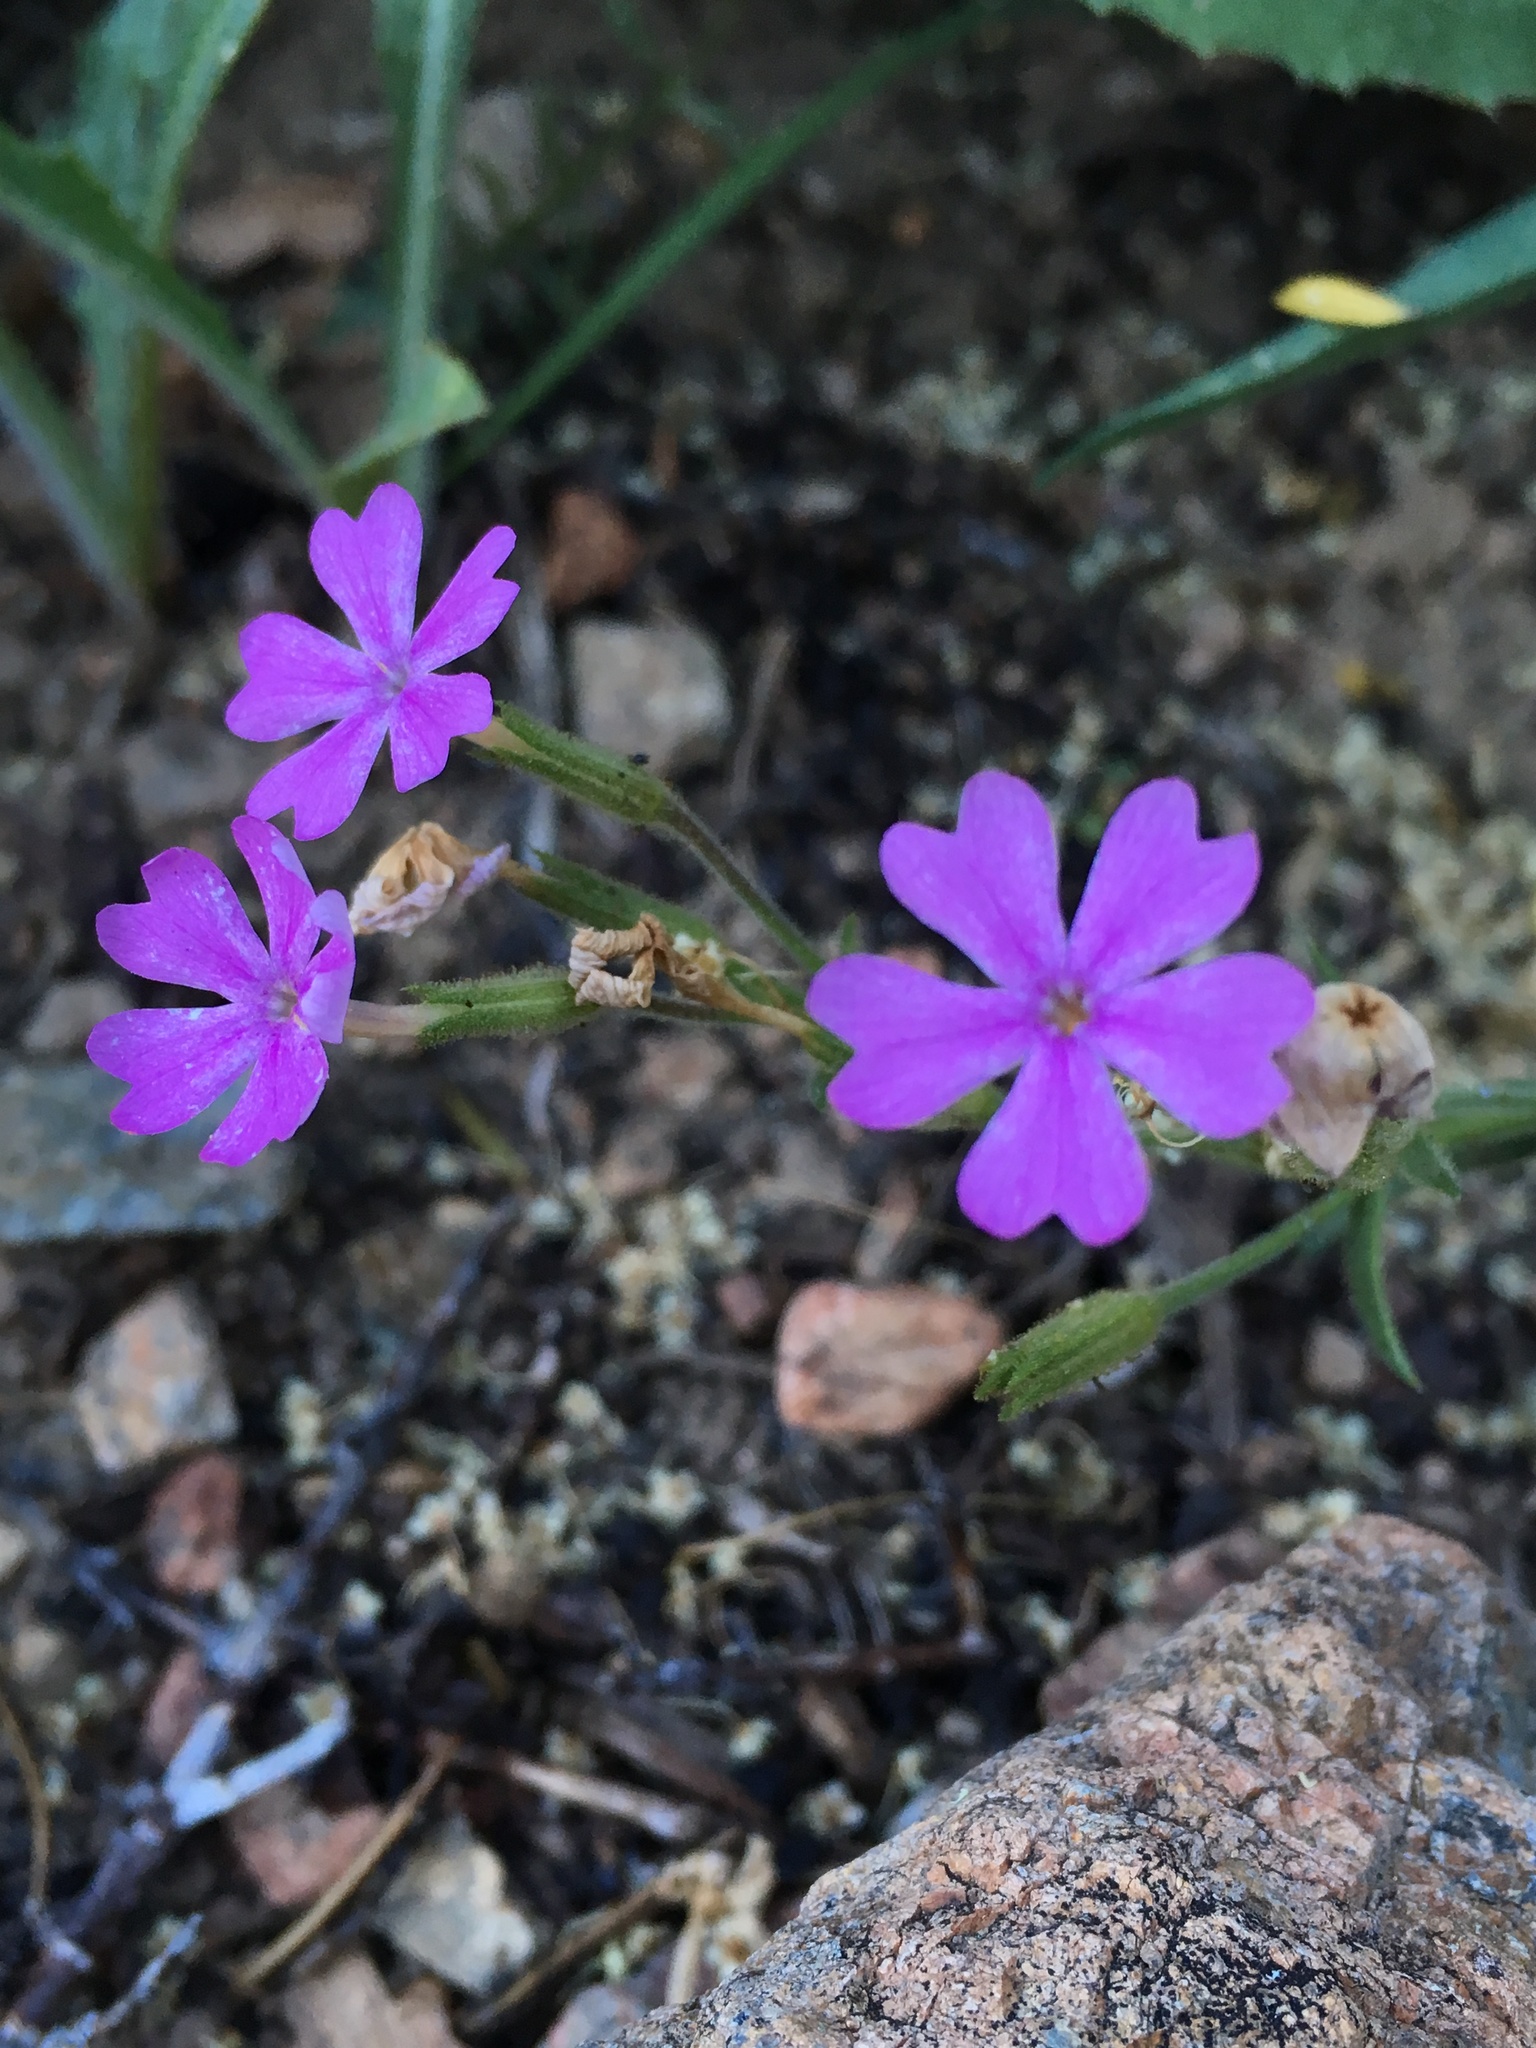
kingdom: Plantae
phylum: Tracheophyta
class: Magnoliopsida
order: Ericales
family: Polemoniaceae
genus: Phlox
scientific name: Phlox speciosa
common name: Bush phlox
